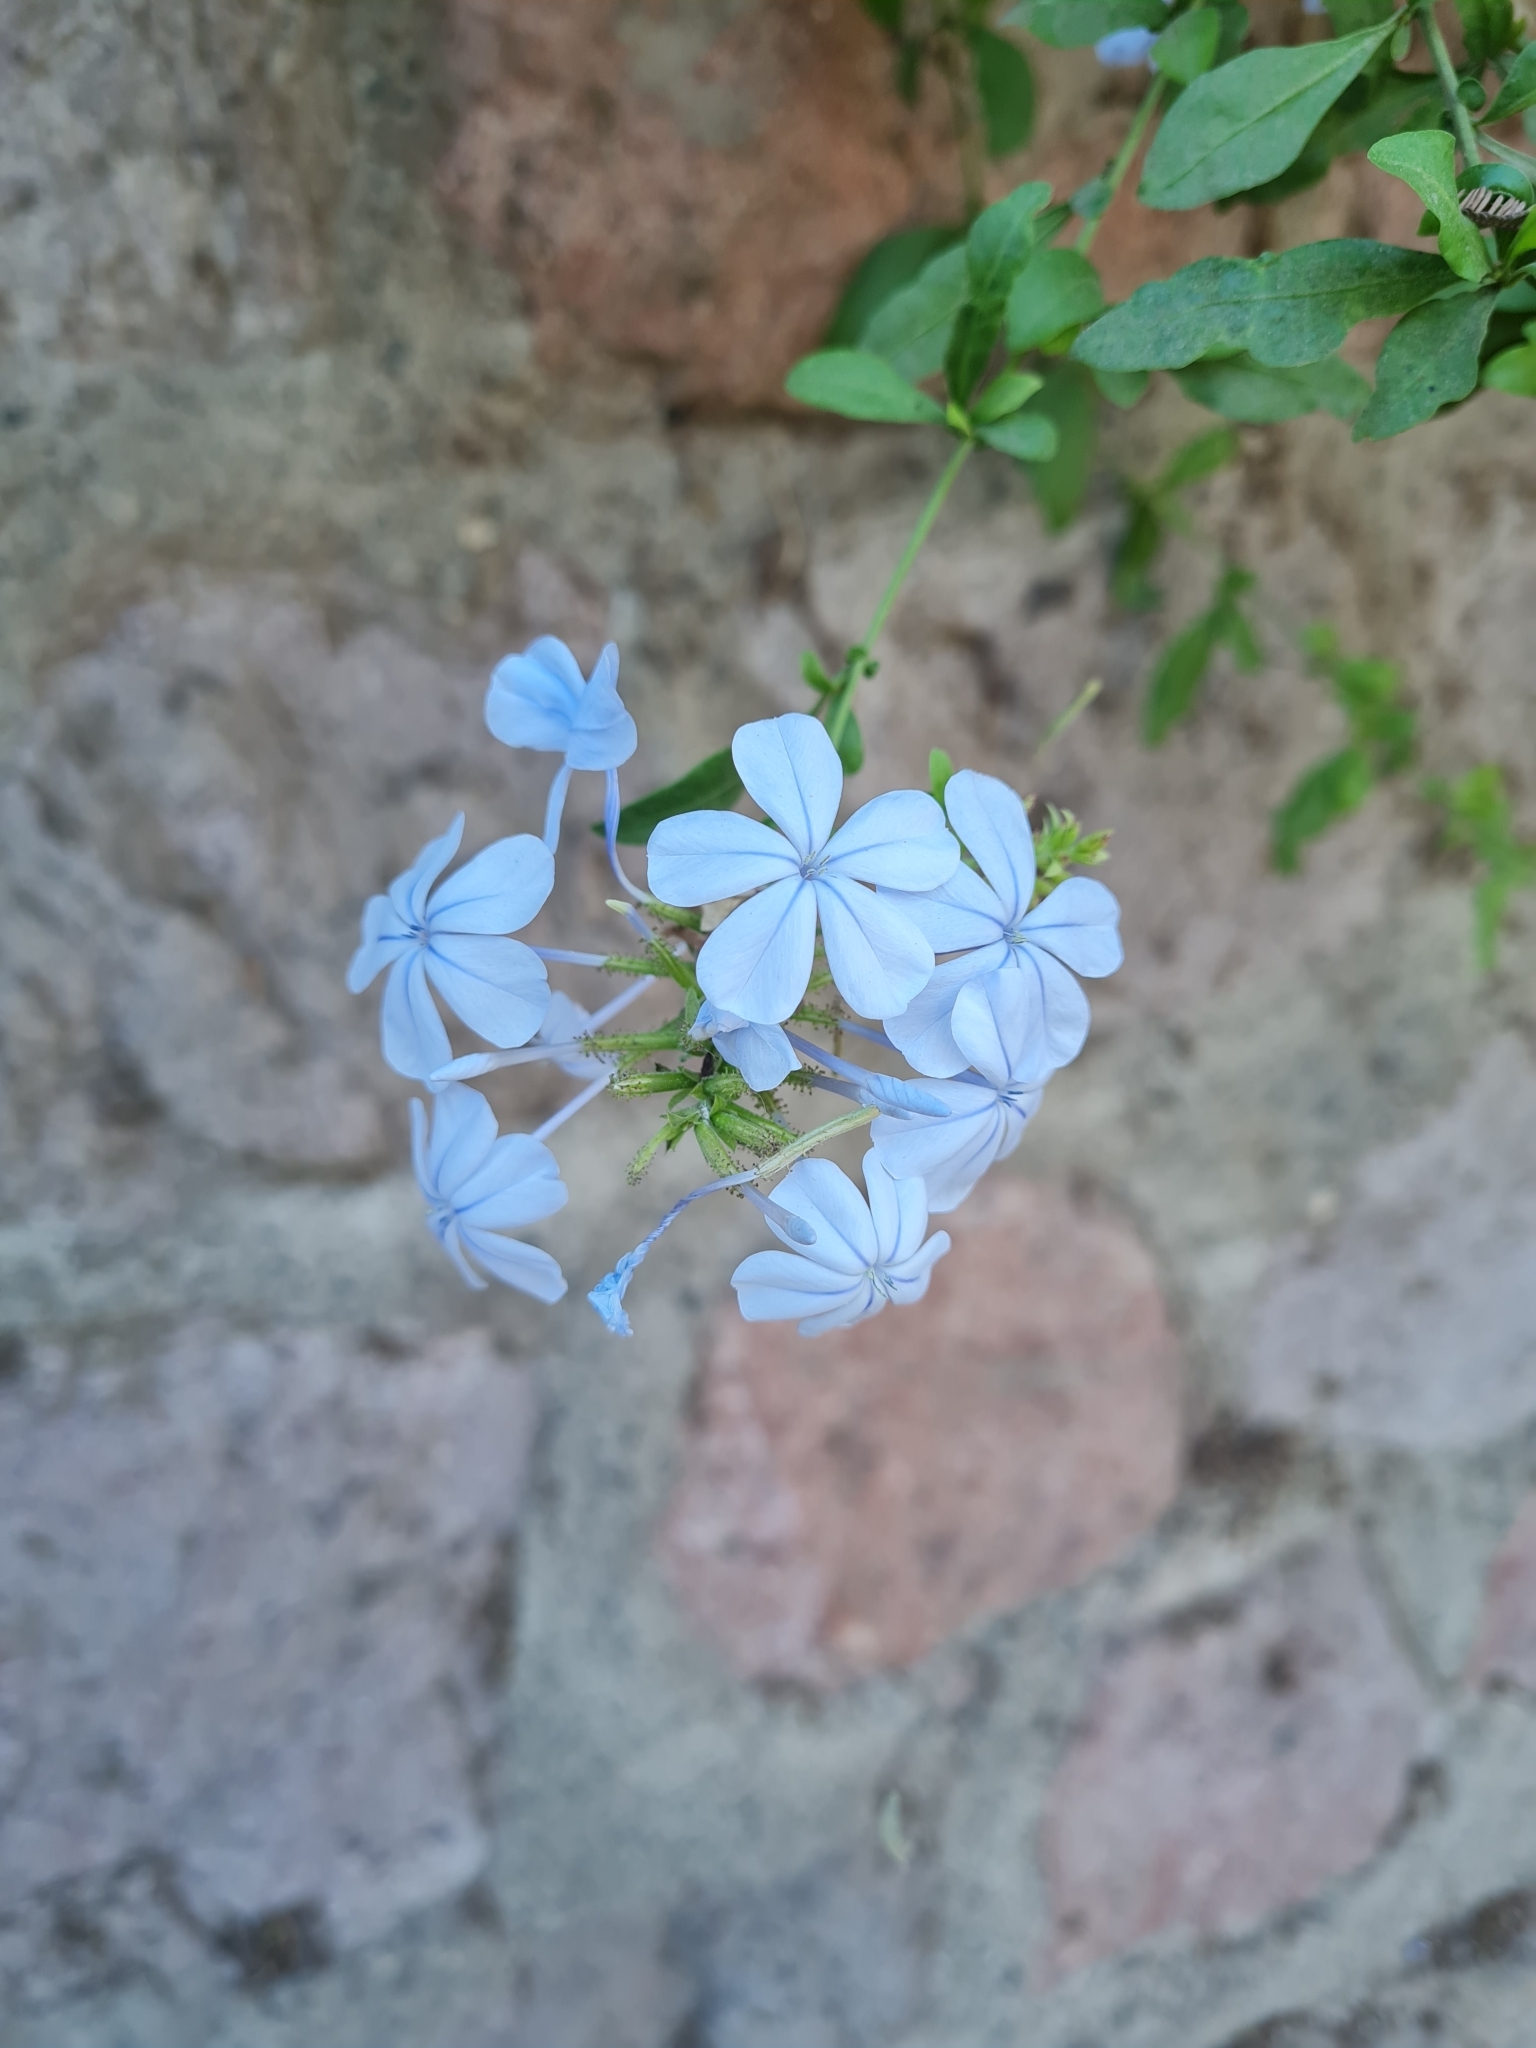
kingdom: Plantae
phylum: Tracheophyta
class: Magnoliopsida
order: Caryophyllales
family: Plumbaginaceae
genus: Plumbago
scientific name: Plumbago auriculata
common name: Cape leadwort
